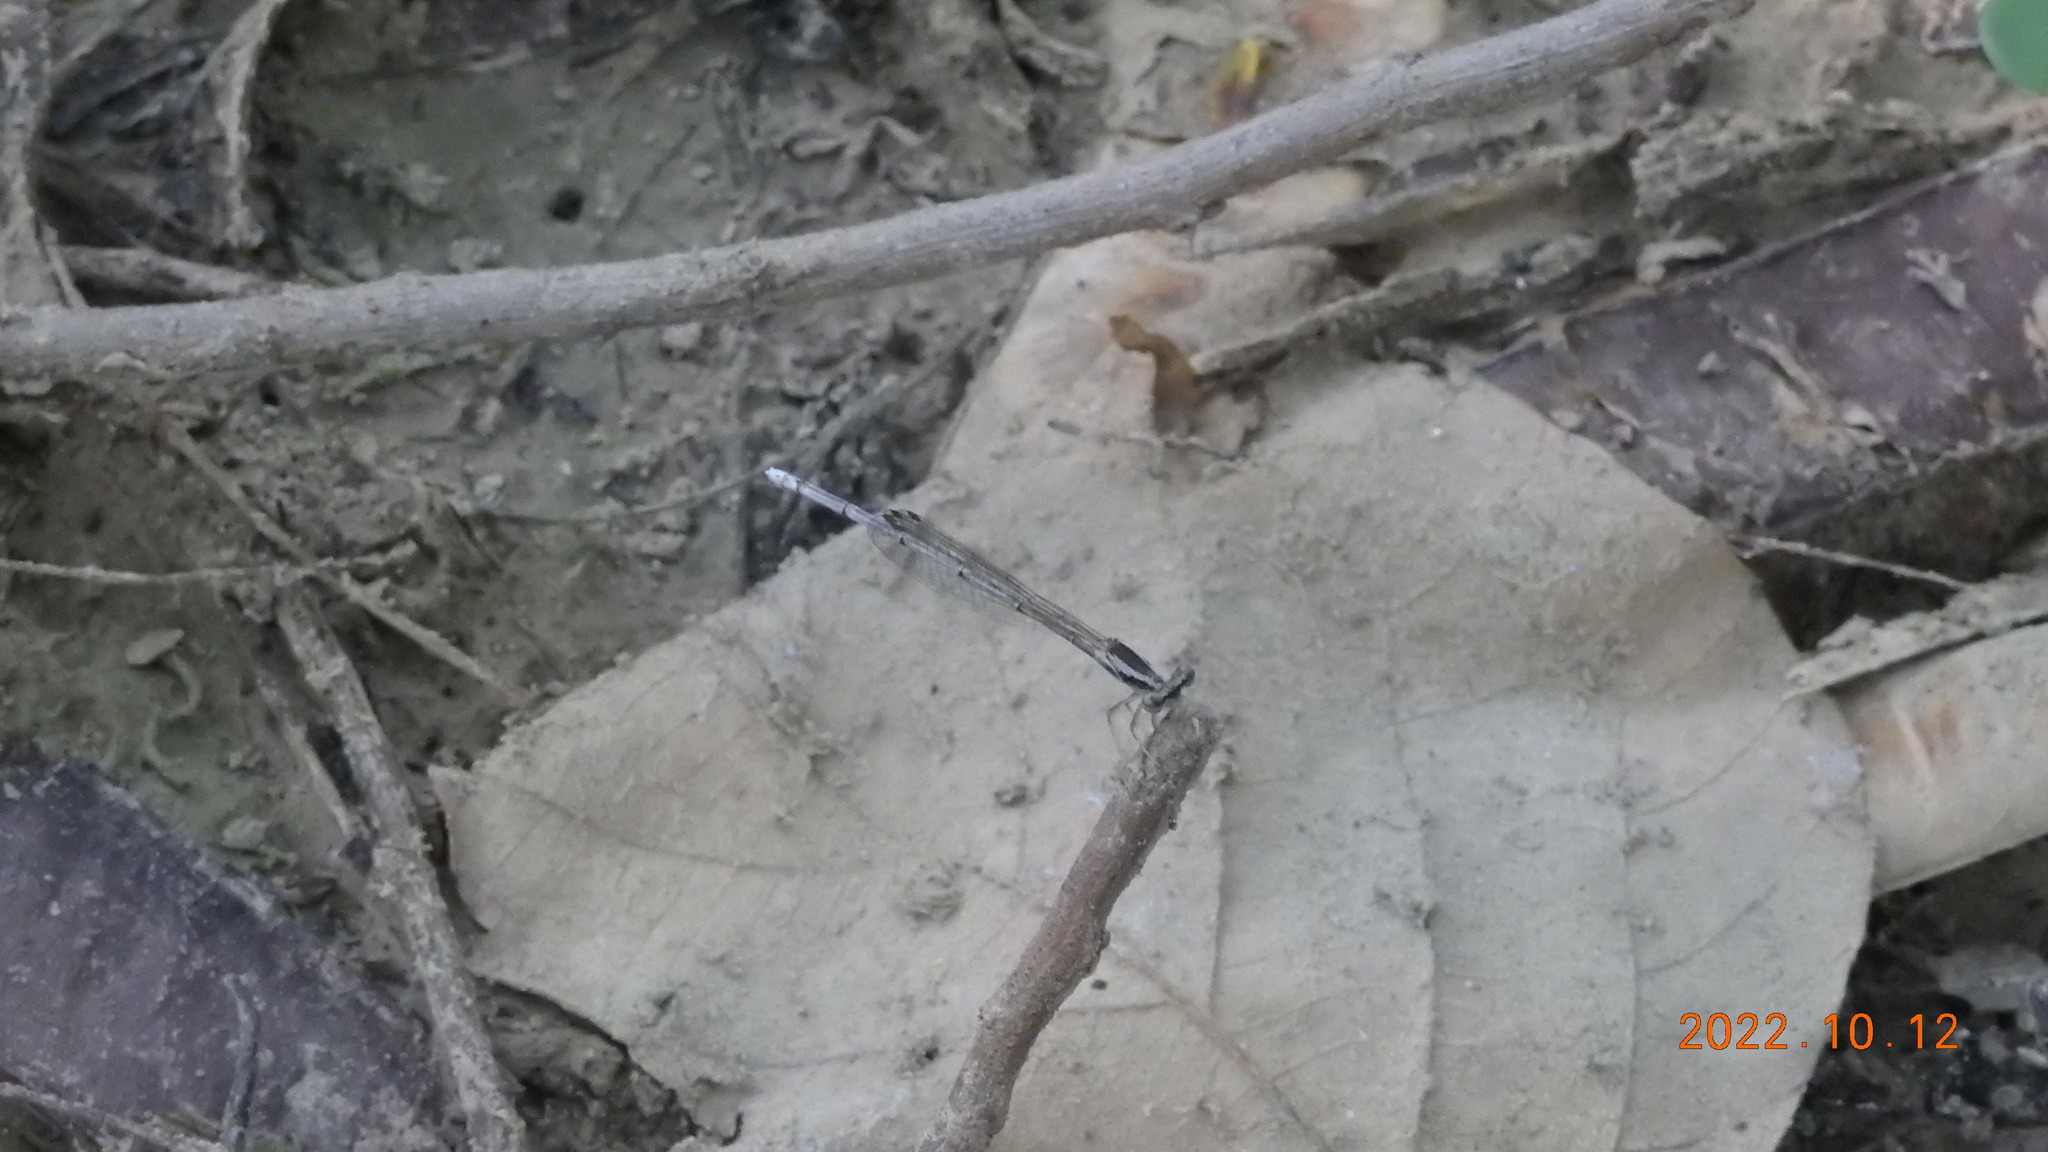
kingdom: Animalia
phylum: Arthropoda
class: Insecta
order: Odonata
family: Platycnemididae
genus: Copera
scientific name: Copera marginipes
